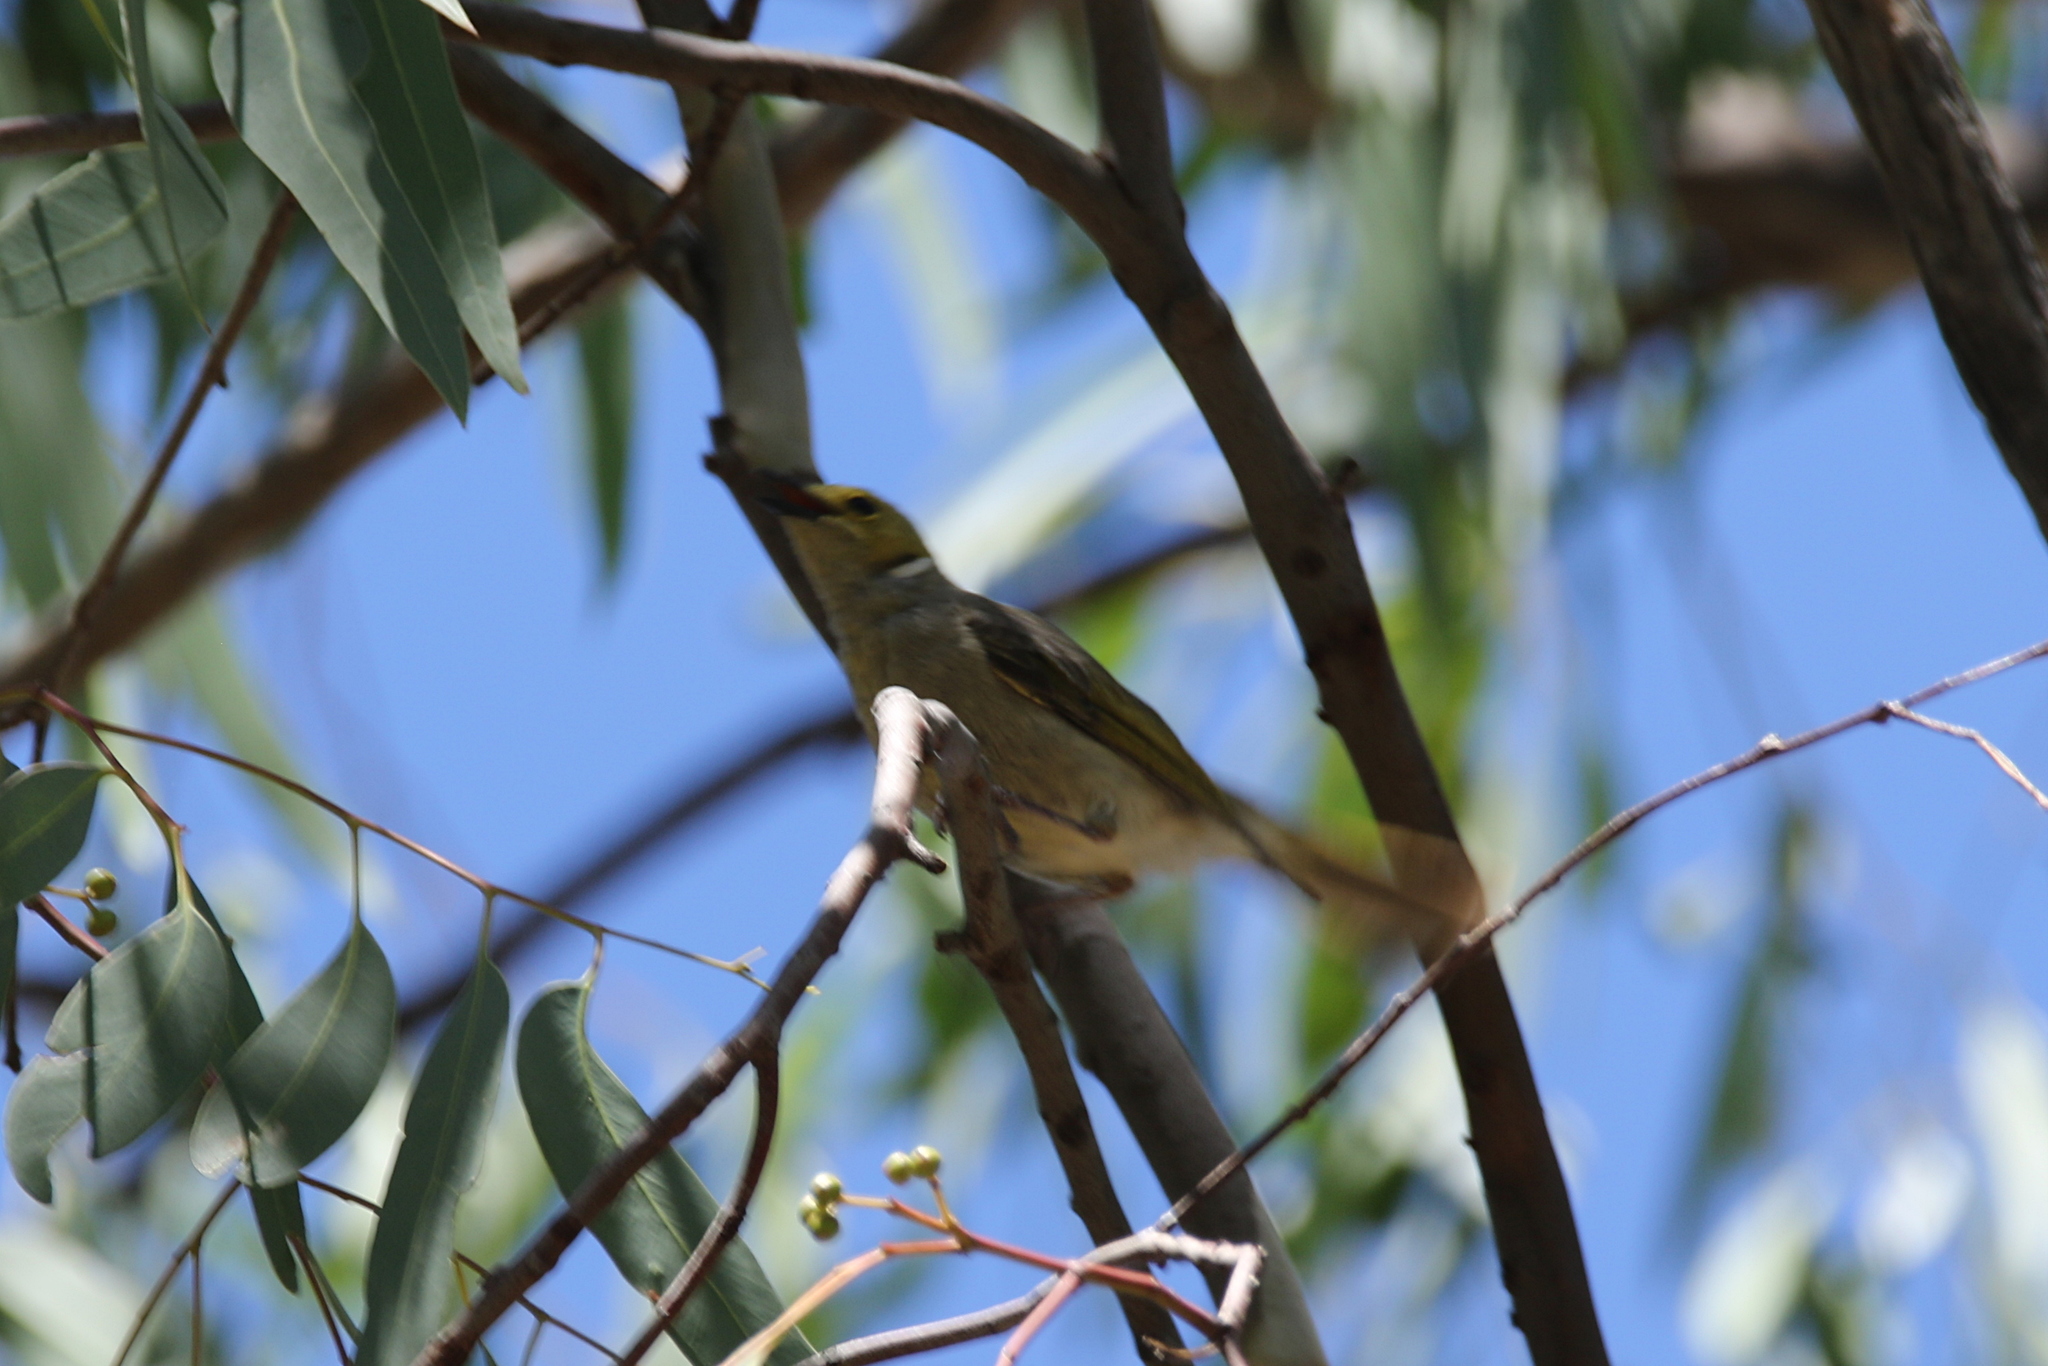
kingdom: Animalia
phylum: Chordata
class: Aves
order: Passeriformes
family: Meliphagidae
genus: Ptilotula
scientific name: Ptilotula penicillata
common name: White-plumed honeyeater
